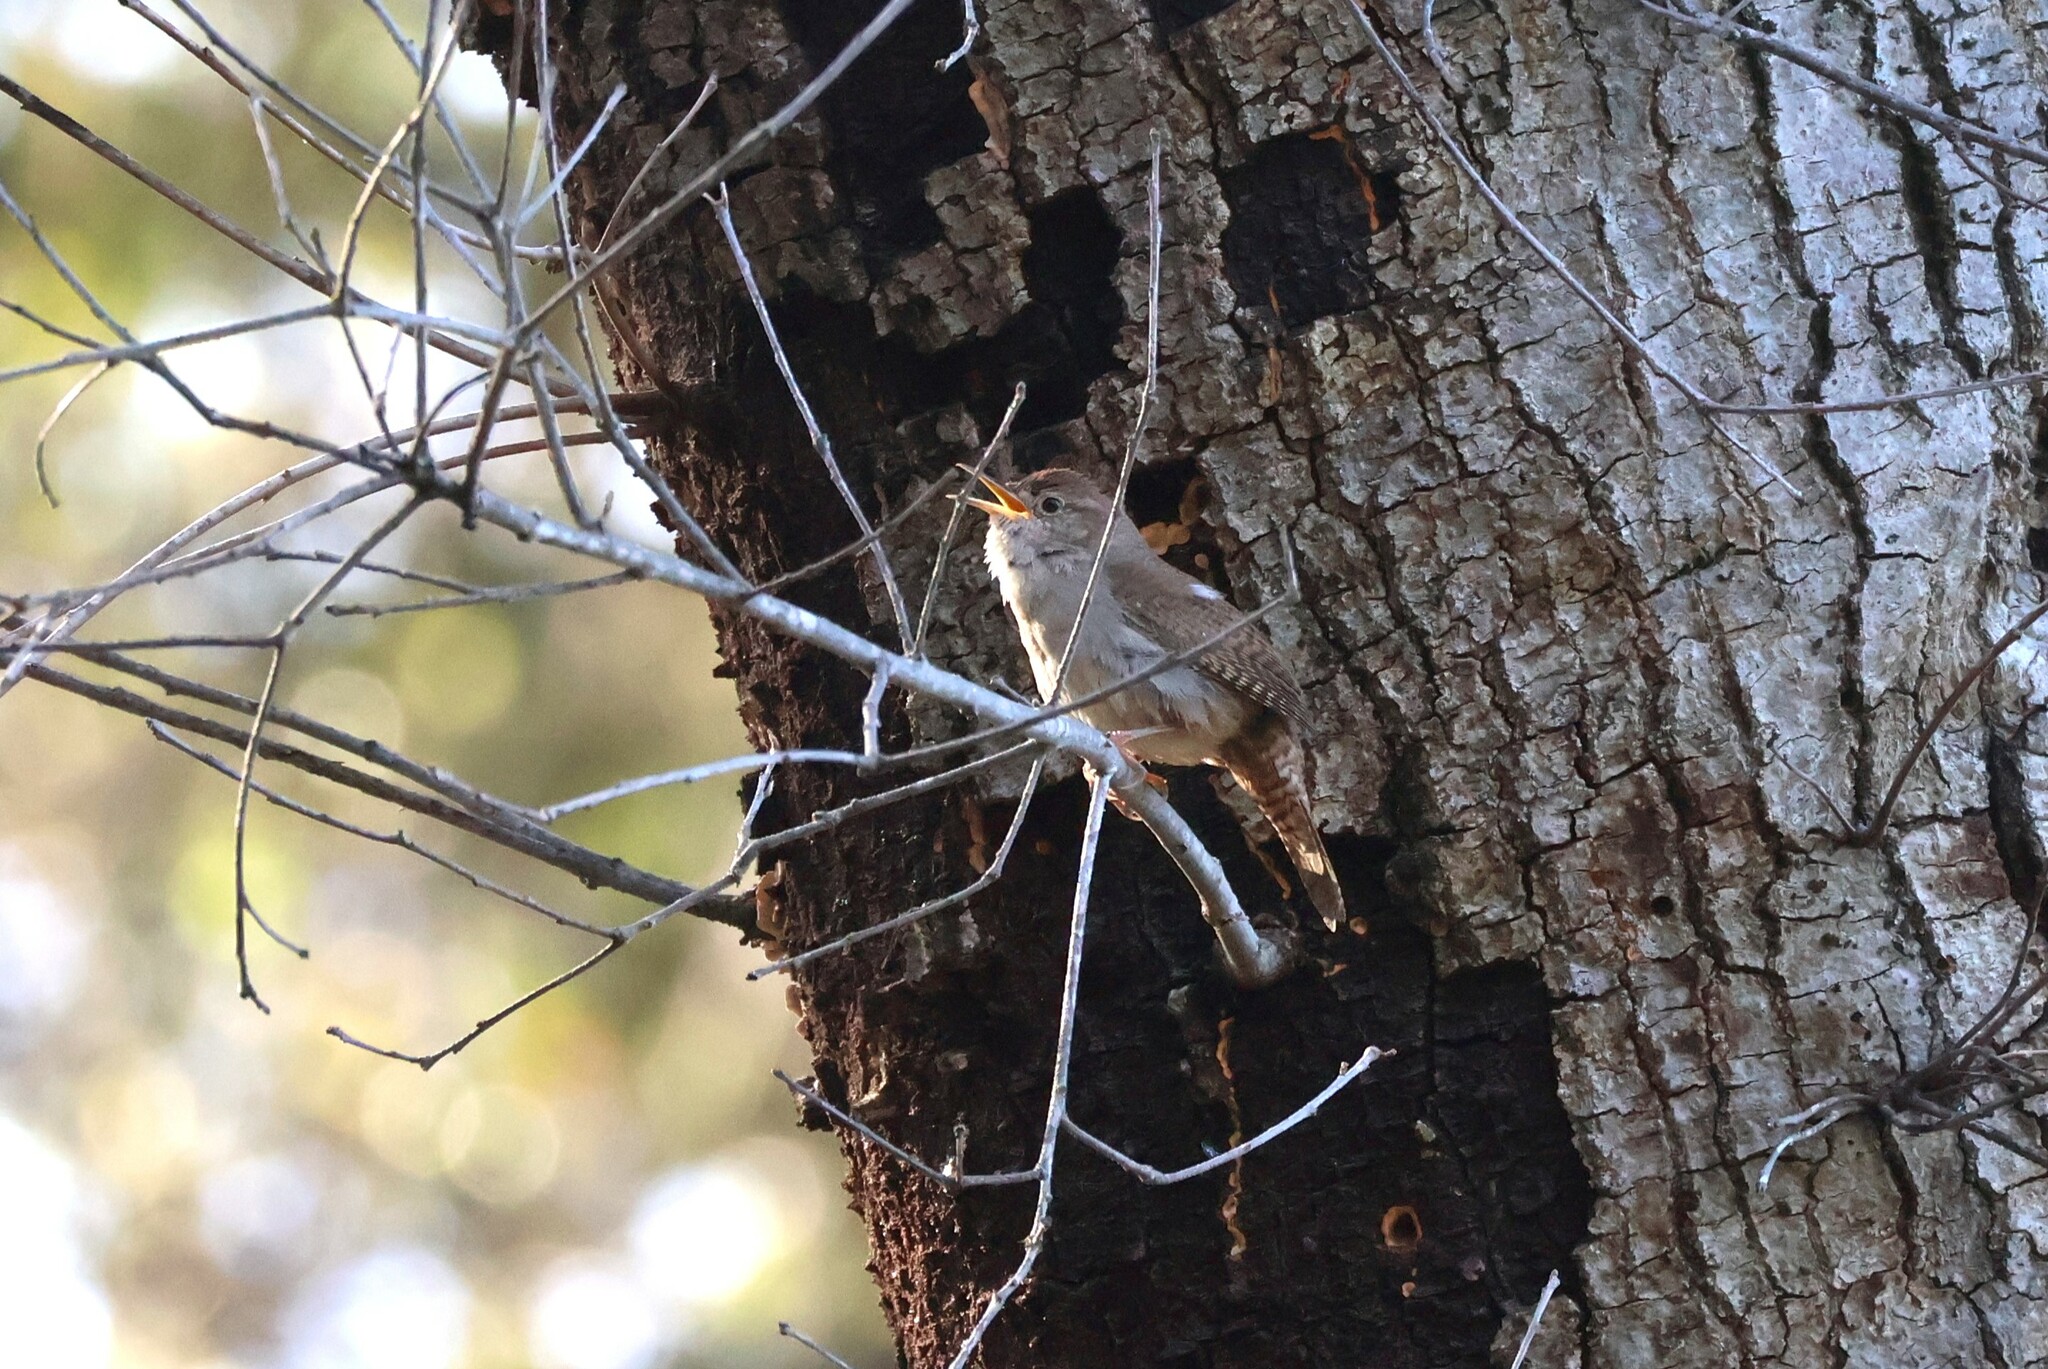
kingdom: Animalia
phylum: Chordata
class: Aves
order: Passeriformes
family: Troglodytidae
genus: Troglodytes
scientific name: Troglodytes aedon
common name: House wren
